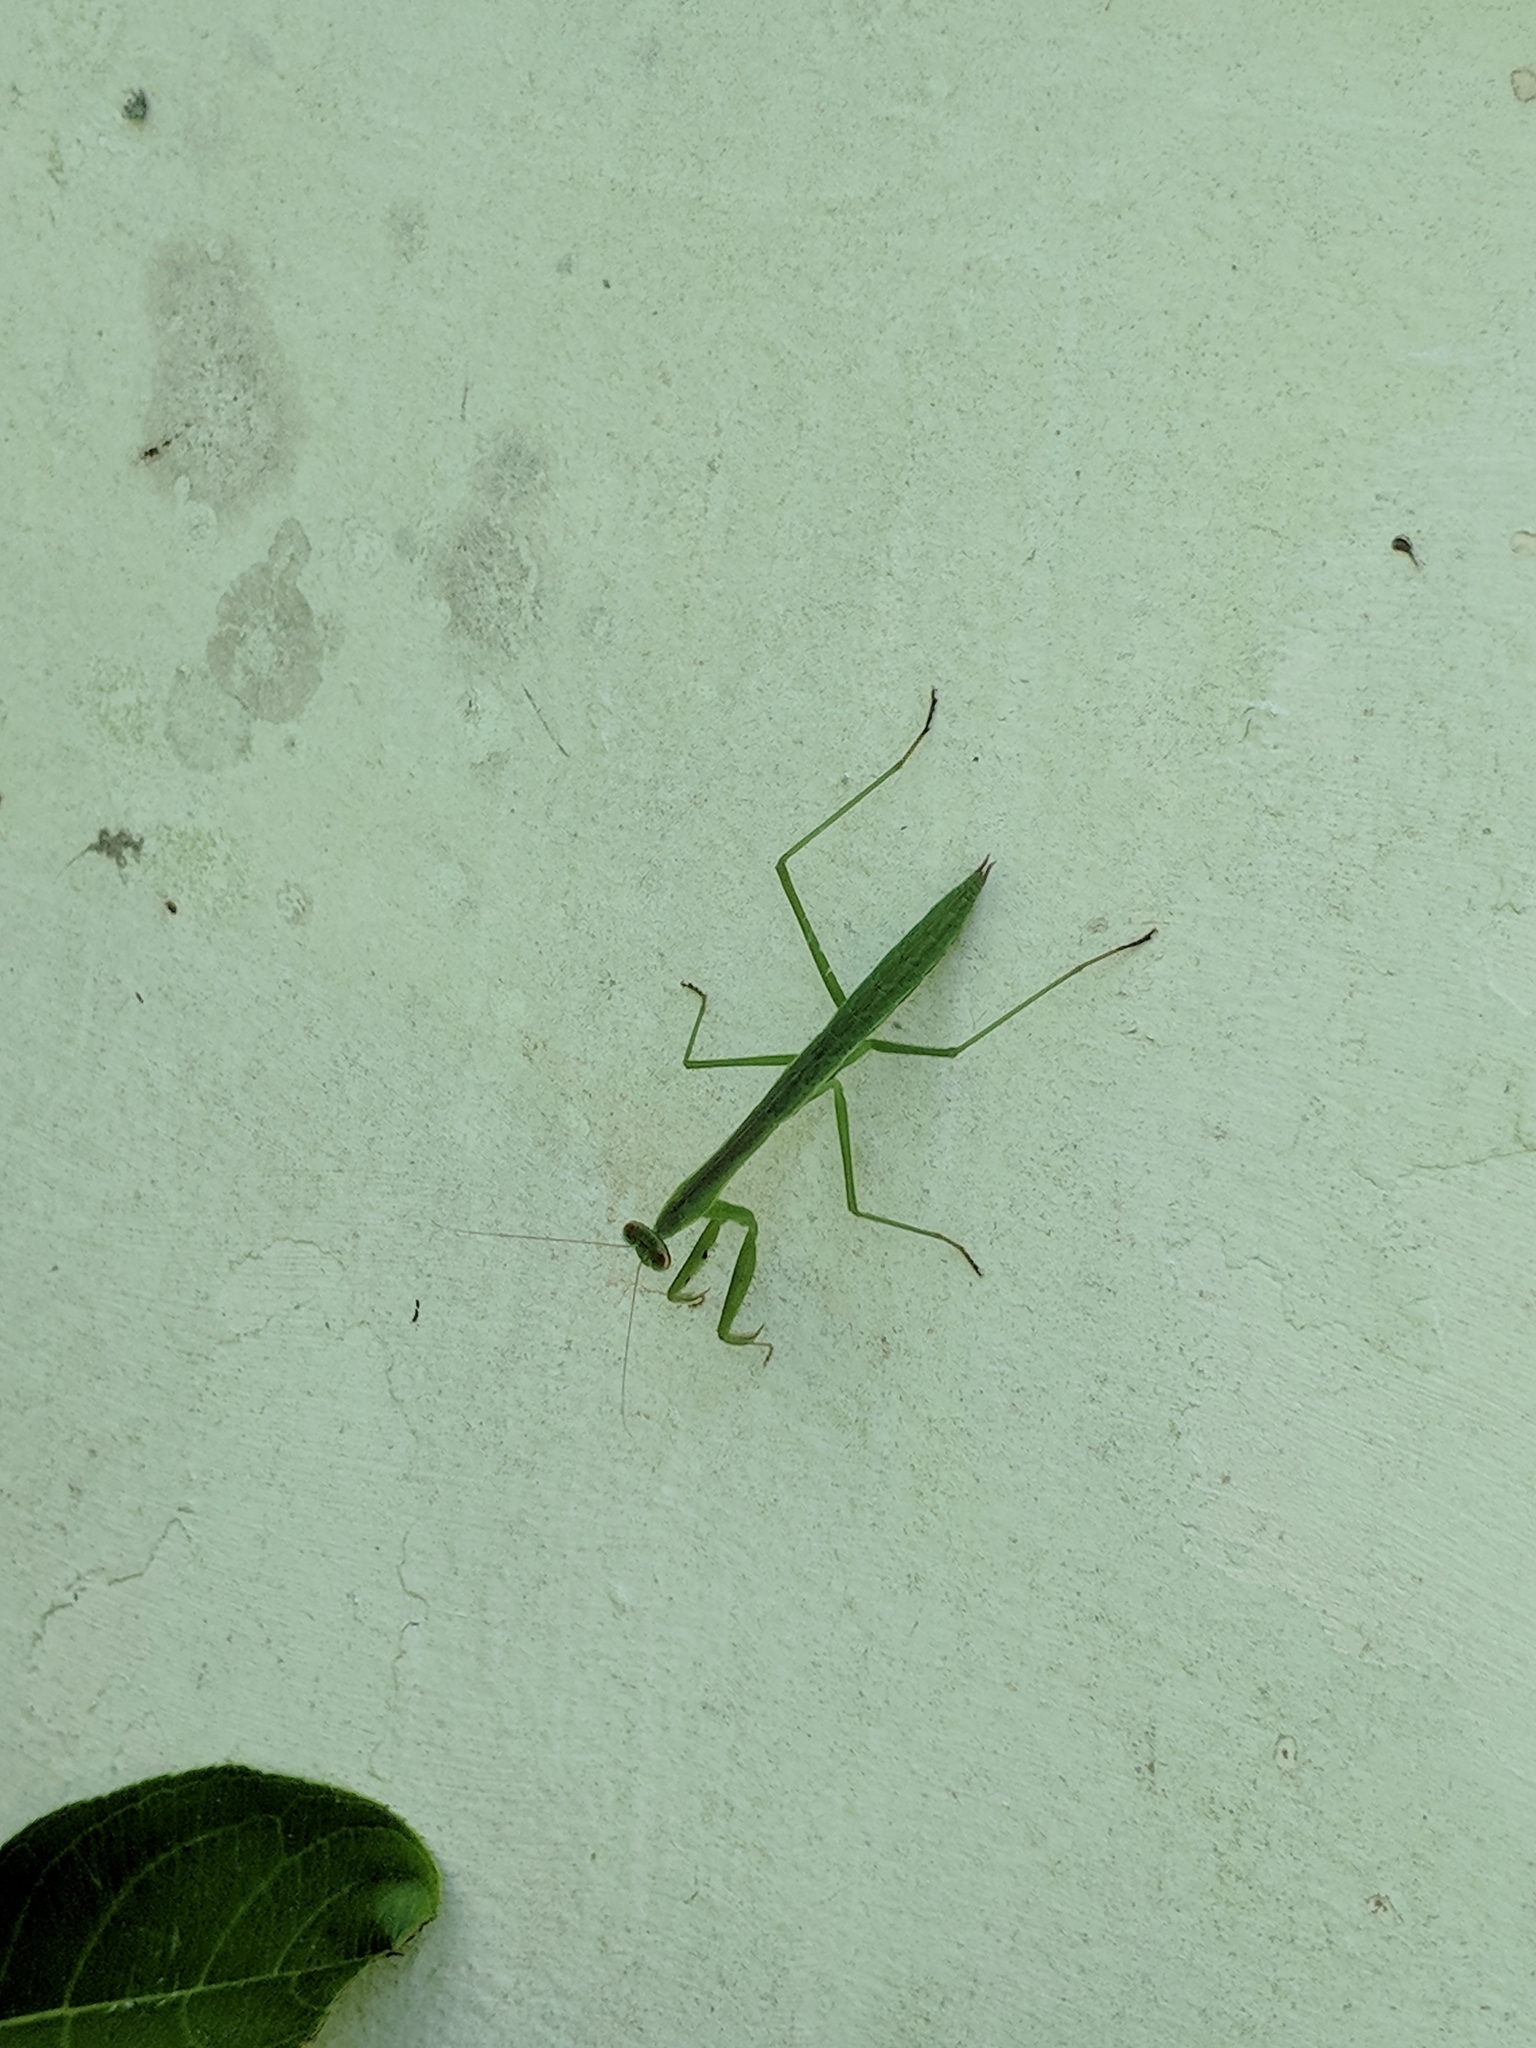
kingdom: Animalia
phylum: Arthropoda
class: Insecta
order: Mantodea
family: Mantidae
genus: Tenodera
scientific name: Tenodera sinensis
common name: Chinese mantis
